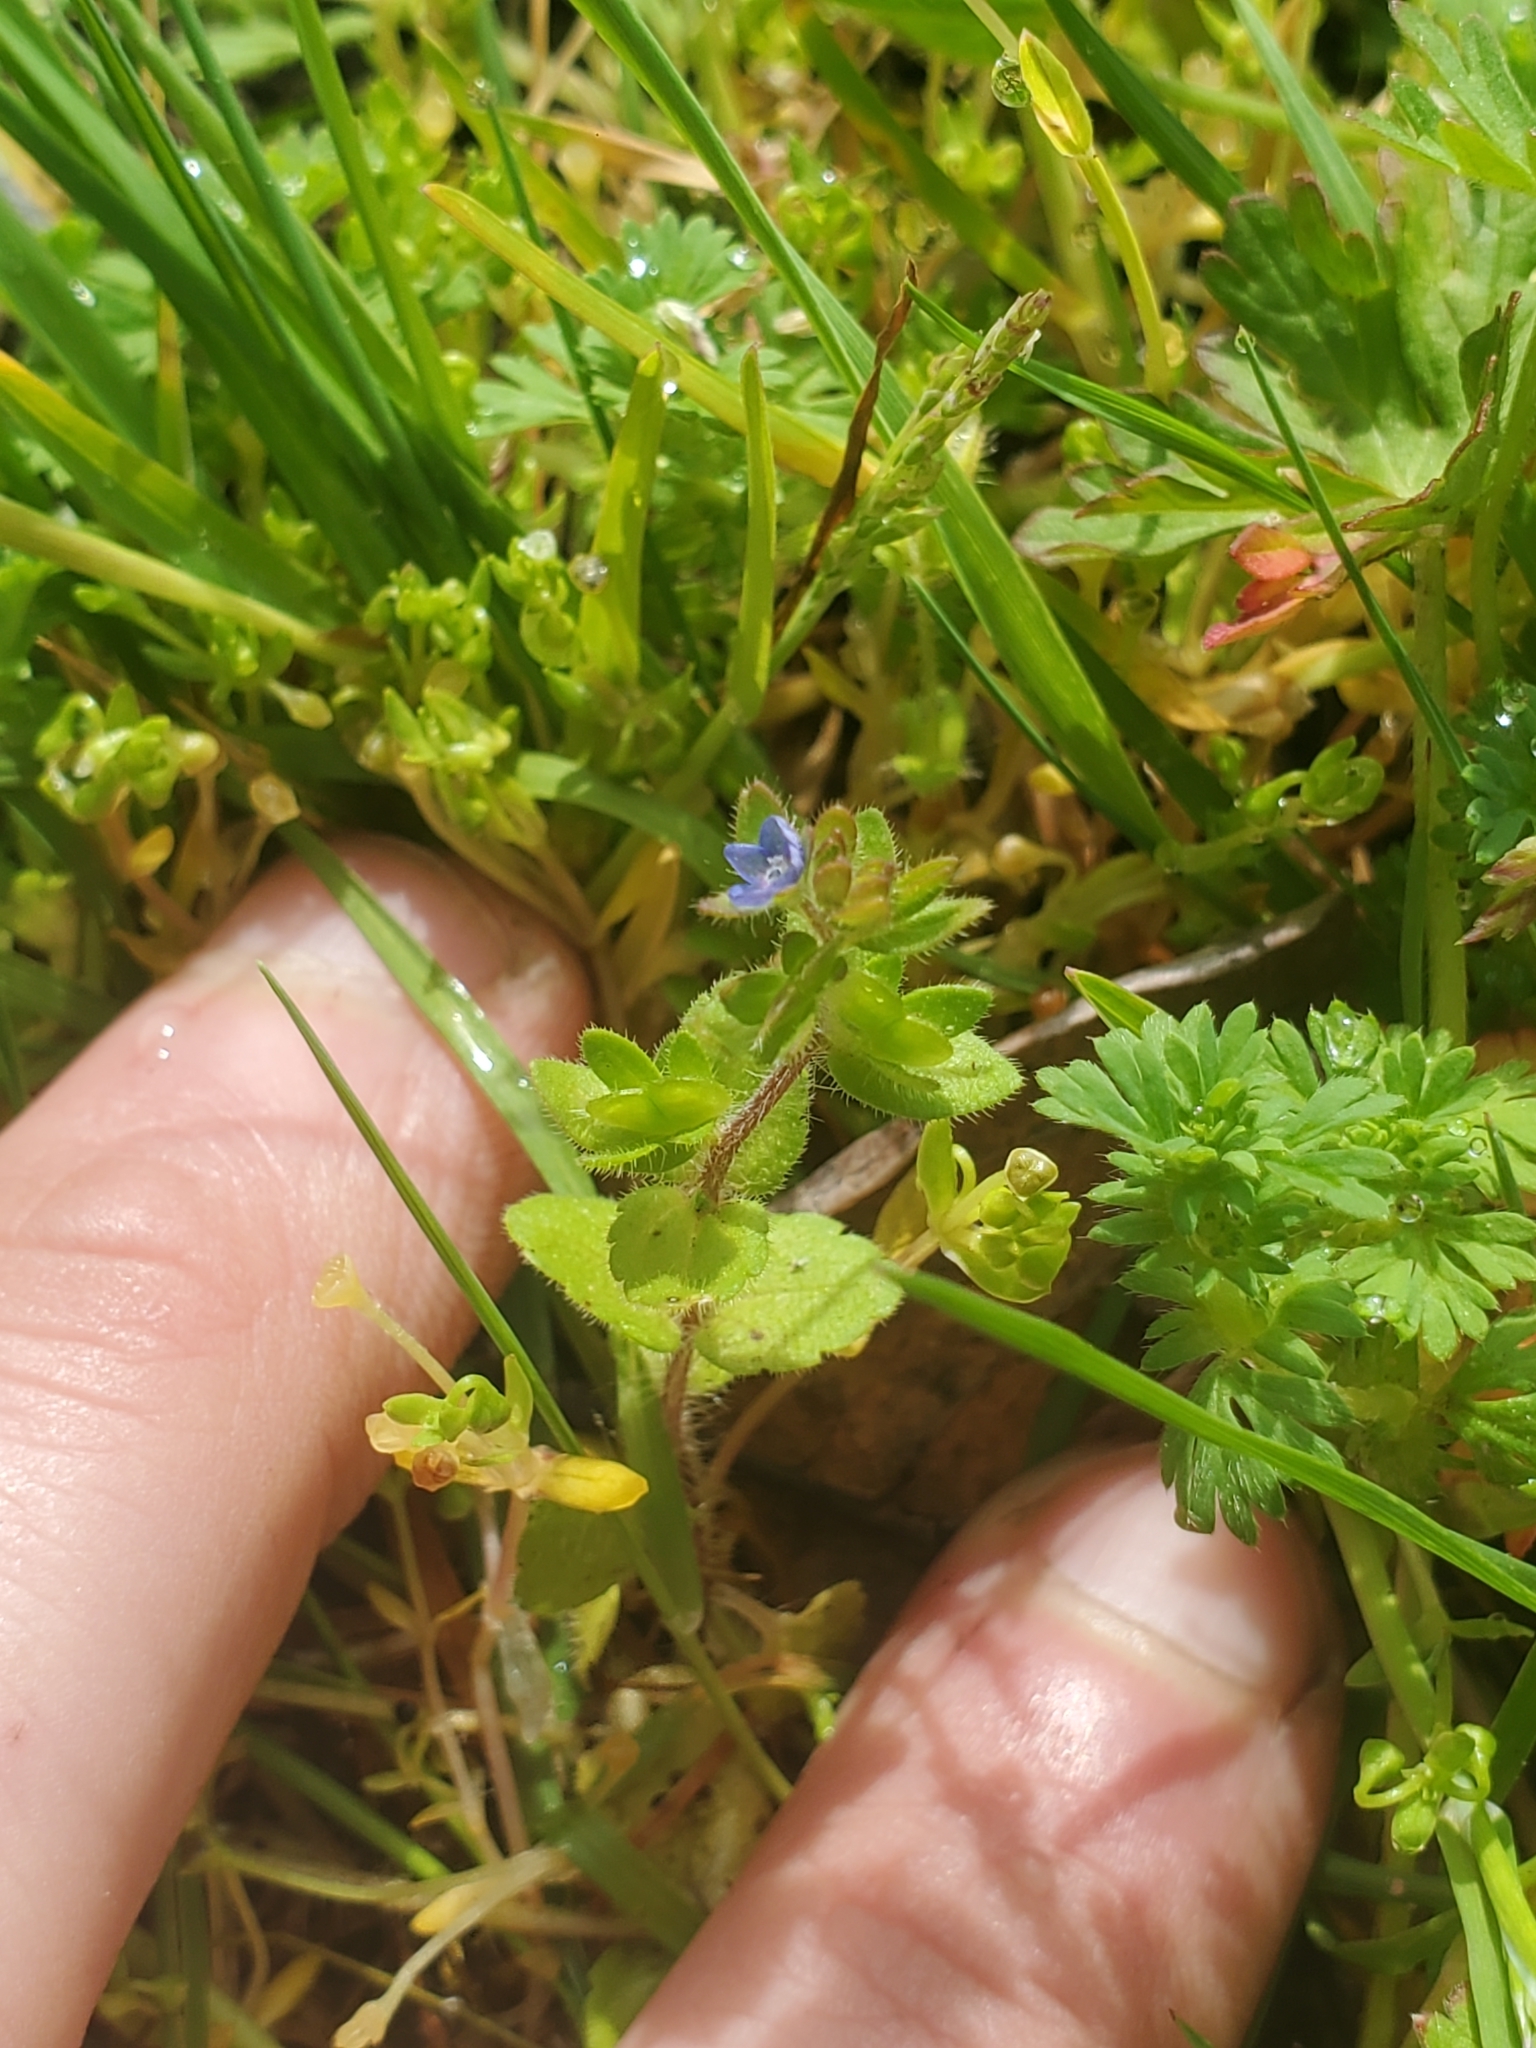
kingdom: Plantae
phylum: Tracheophyta
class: Magnoliopsida
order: Lamiales
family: Plantaginaceae
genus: Veronica
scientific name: Veronica arvensis
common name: Corn speedwell
